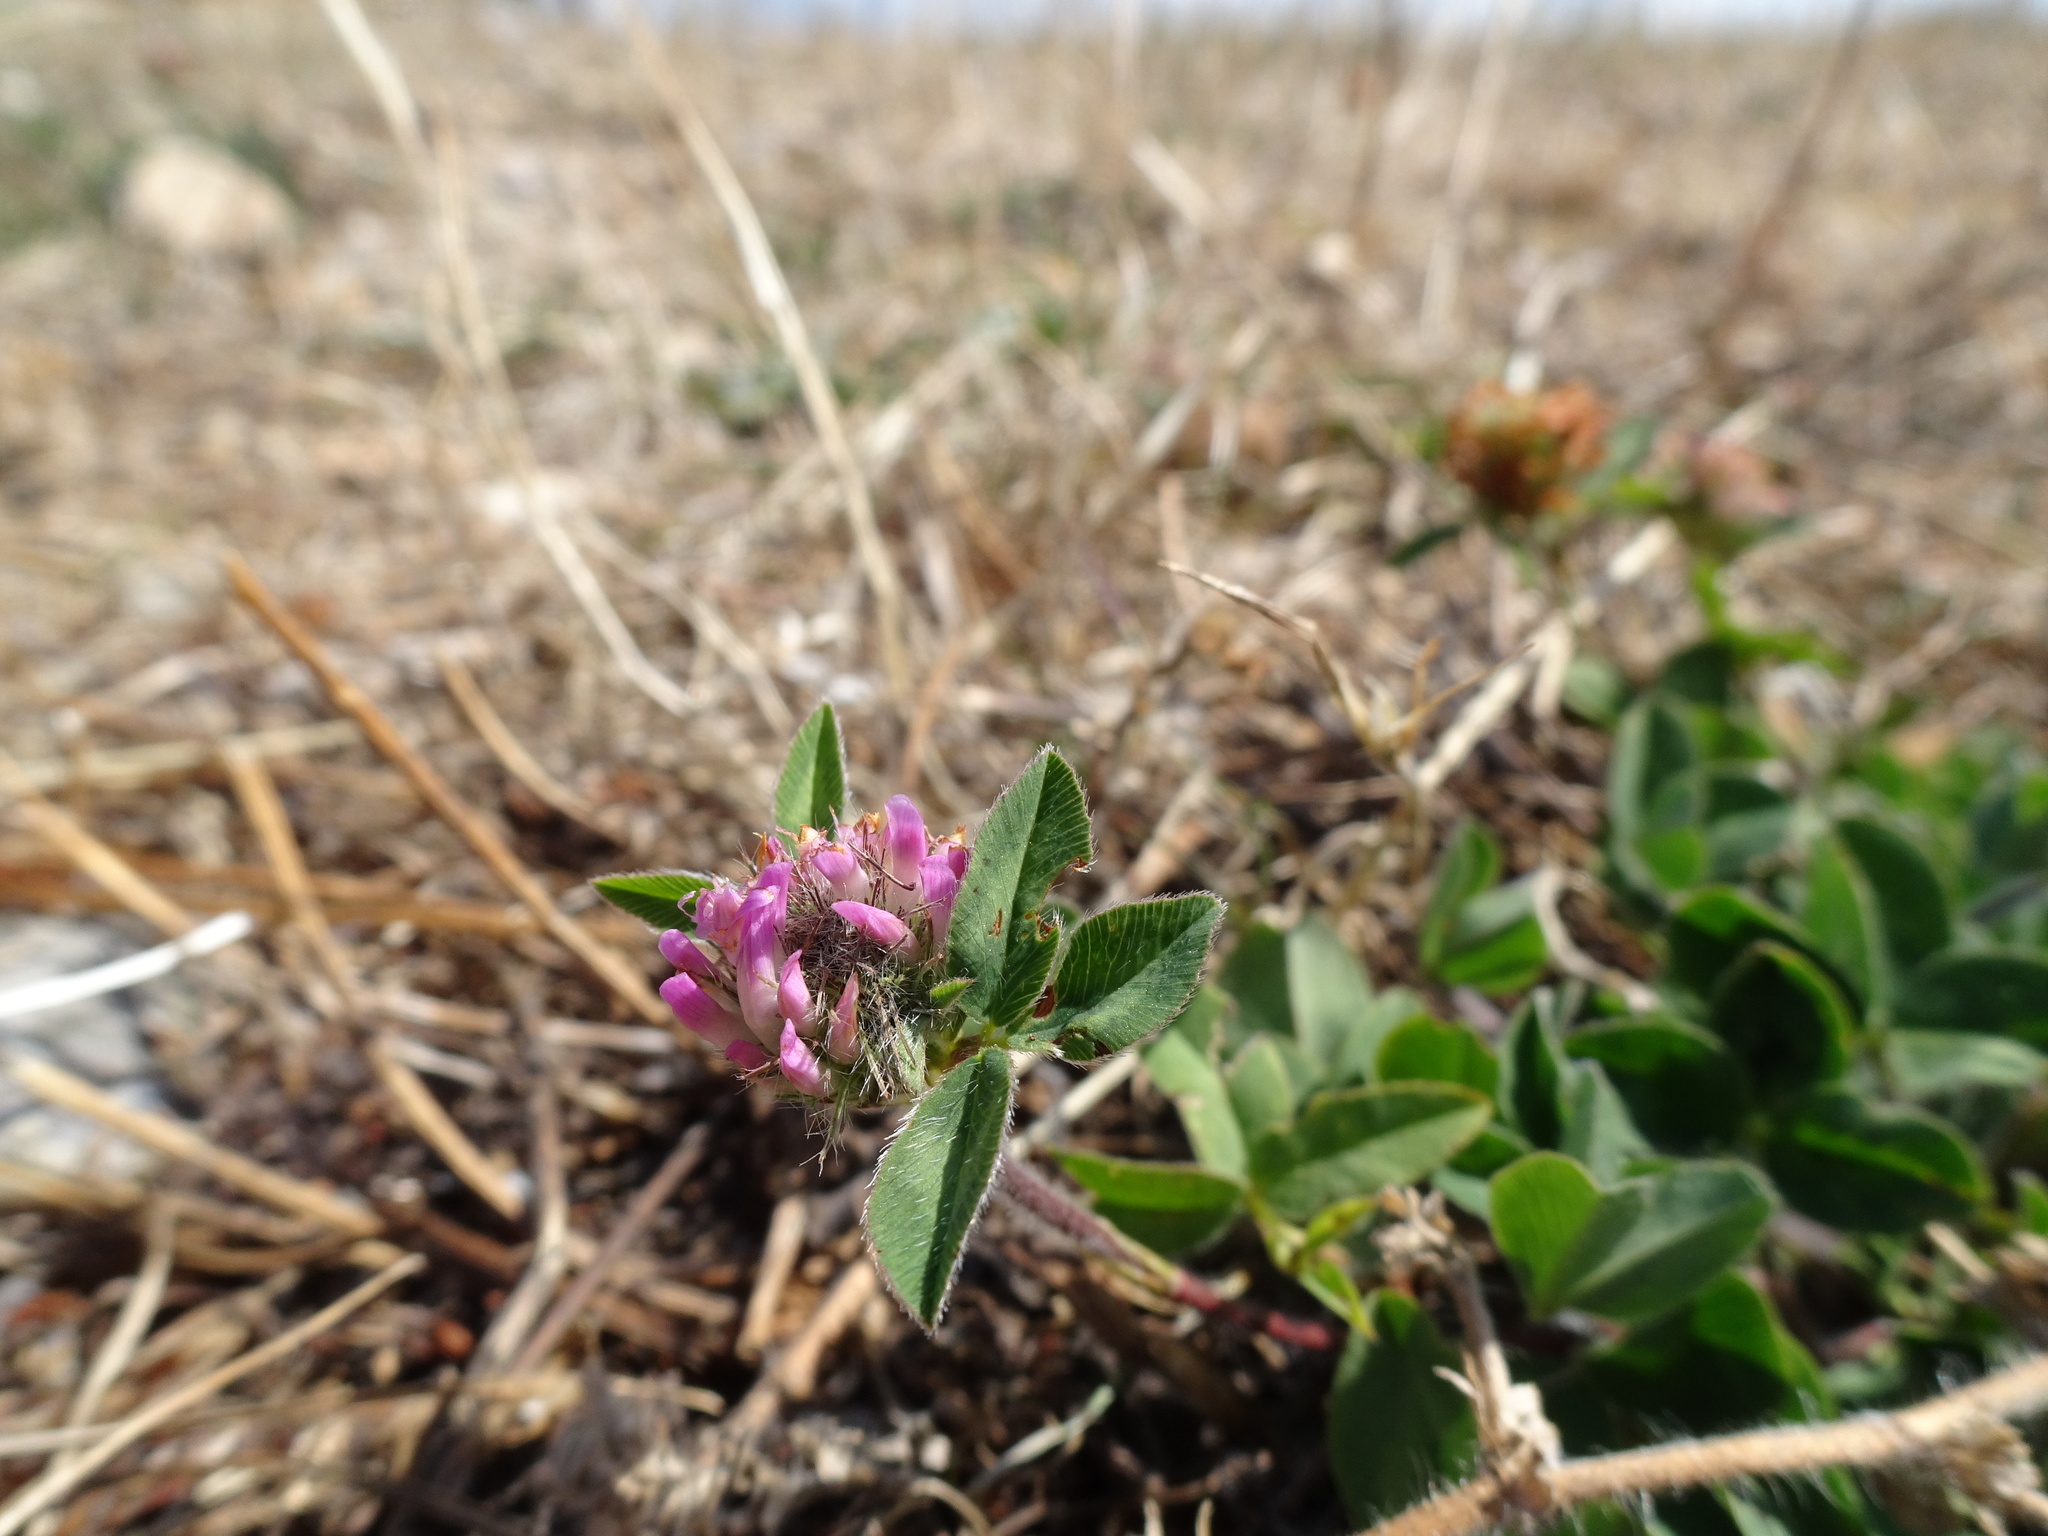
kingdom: Plantae
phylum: Tracheophyta
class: Magnoliopsida
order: Fabales
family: Fabaceae
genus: Trifolium
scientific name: Trifolium pratense
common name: Red clover
